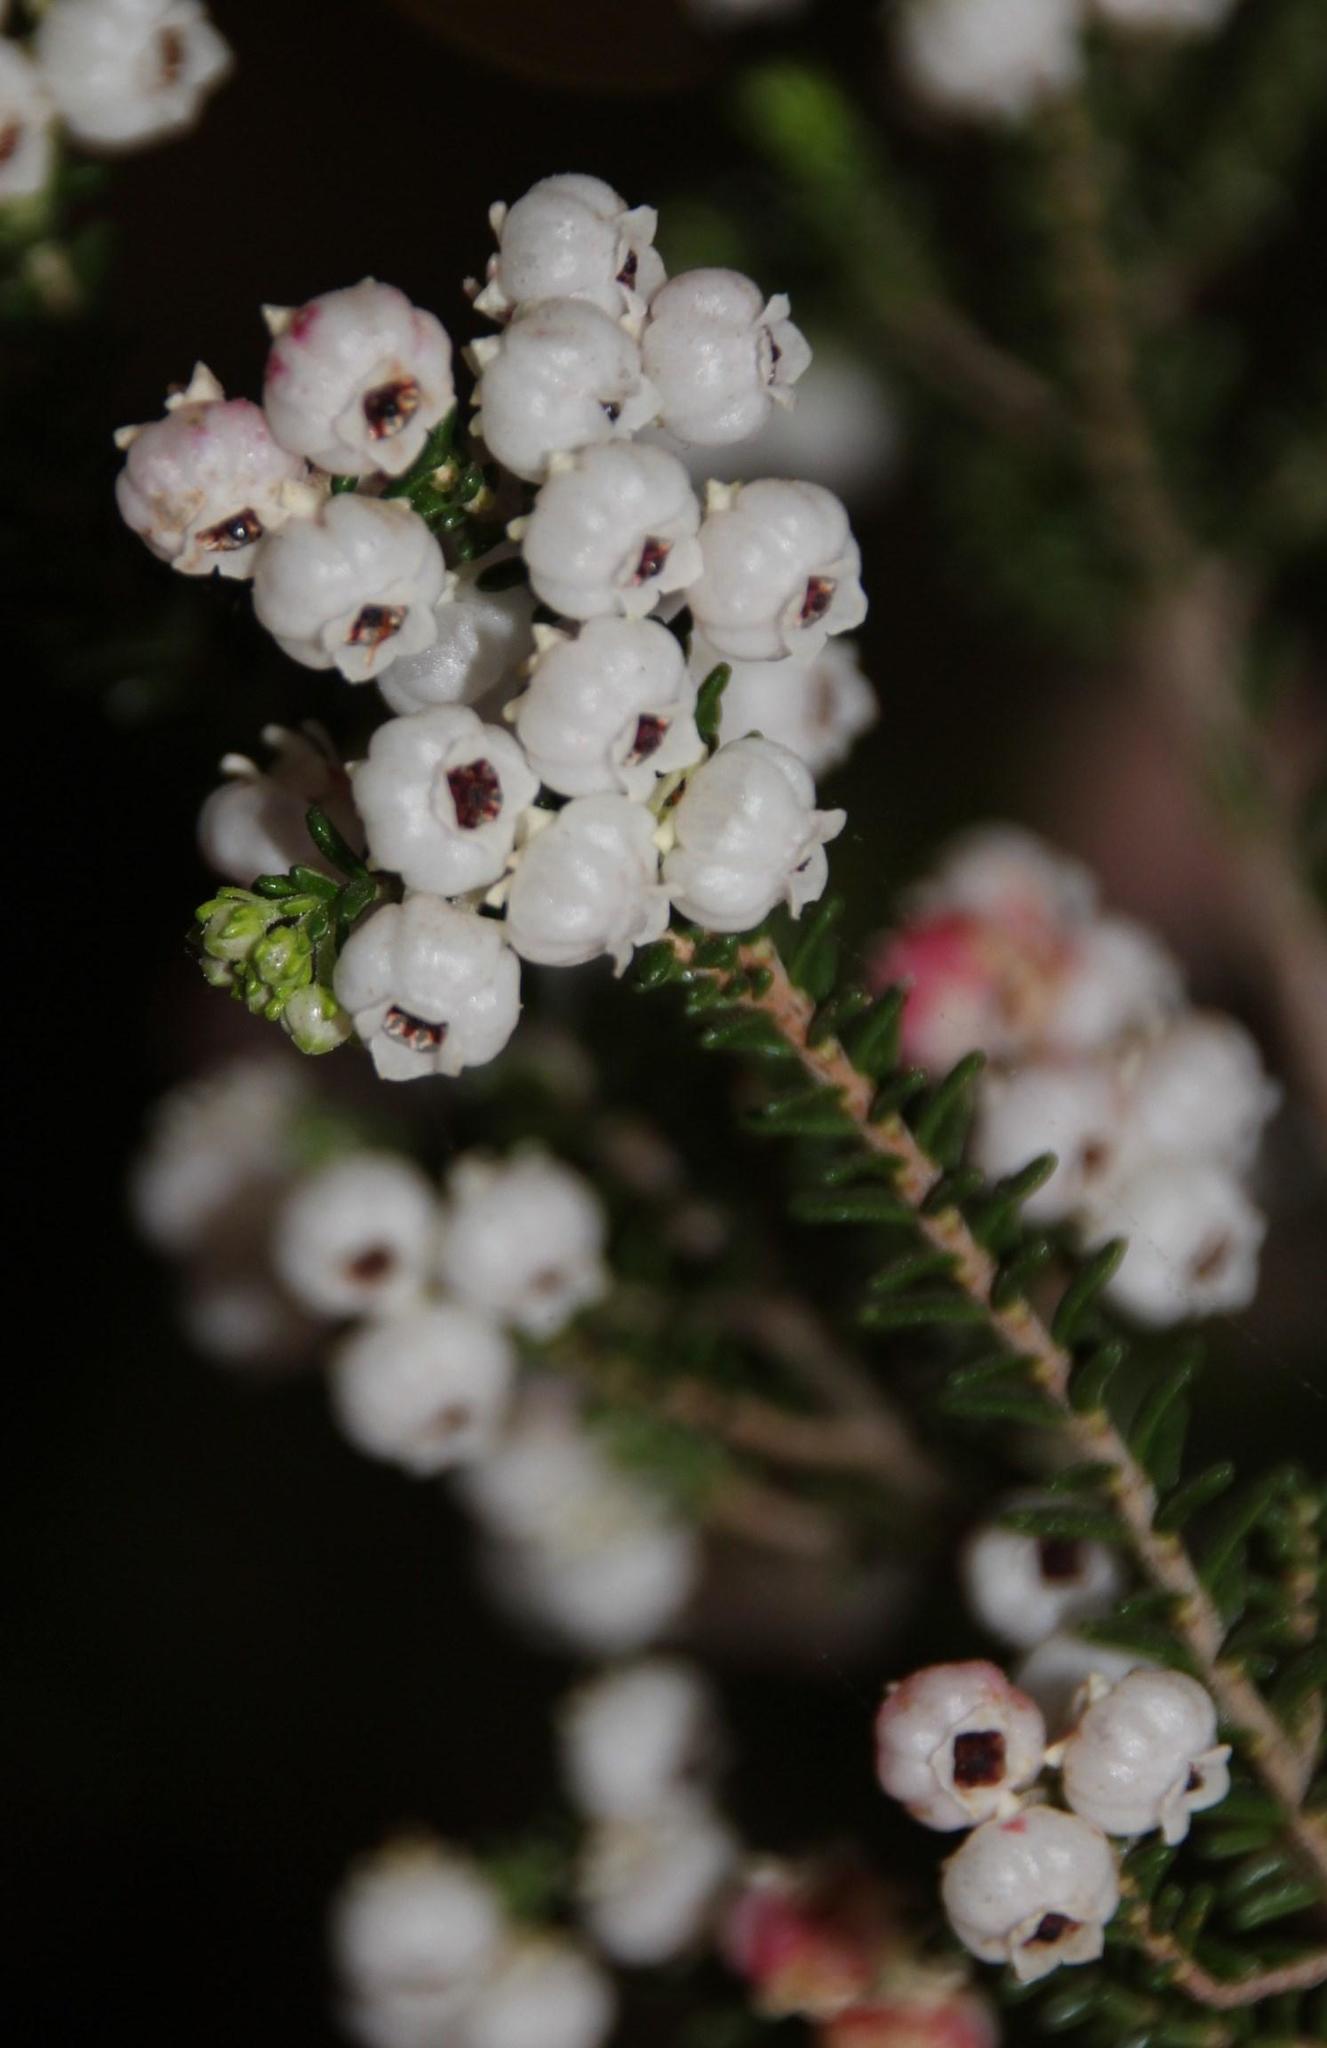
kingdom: Plantae
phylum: Tracheophyta
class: Magnoliopsida
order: Ericales
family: Ericaceae
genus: Erica
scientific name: Erica formosa
